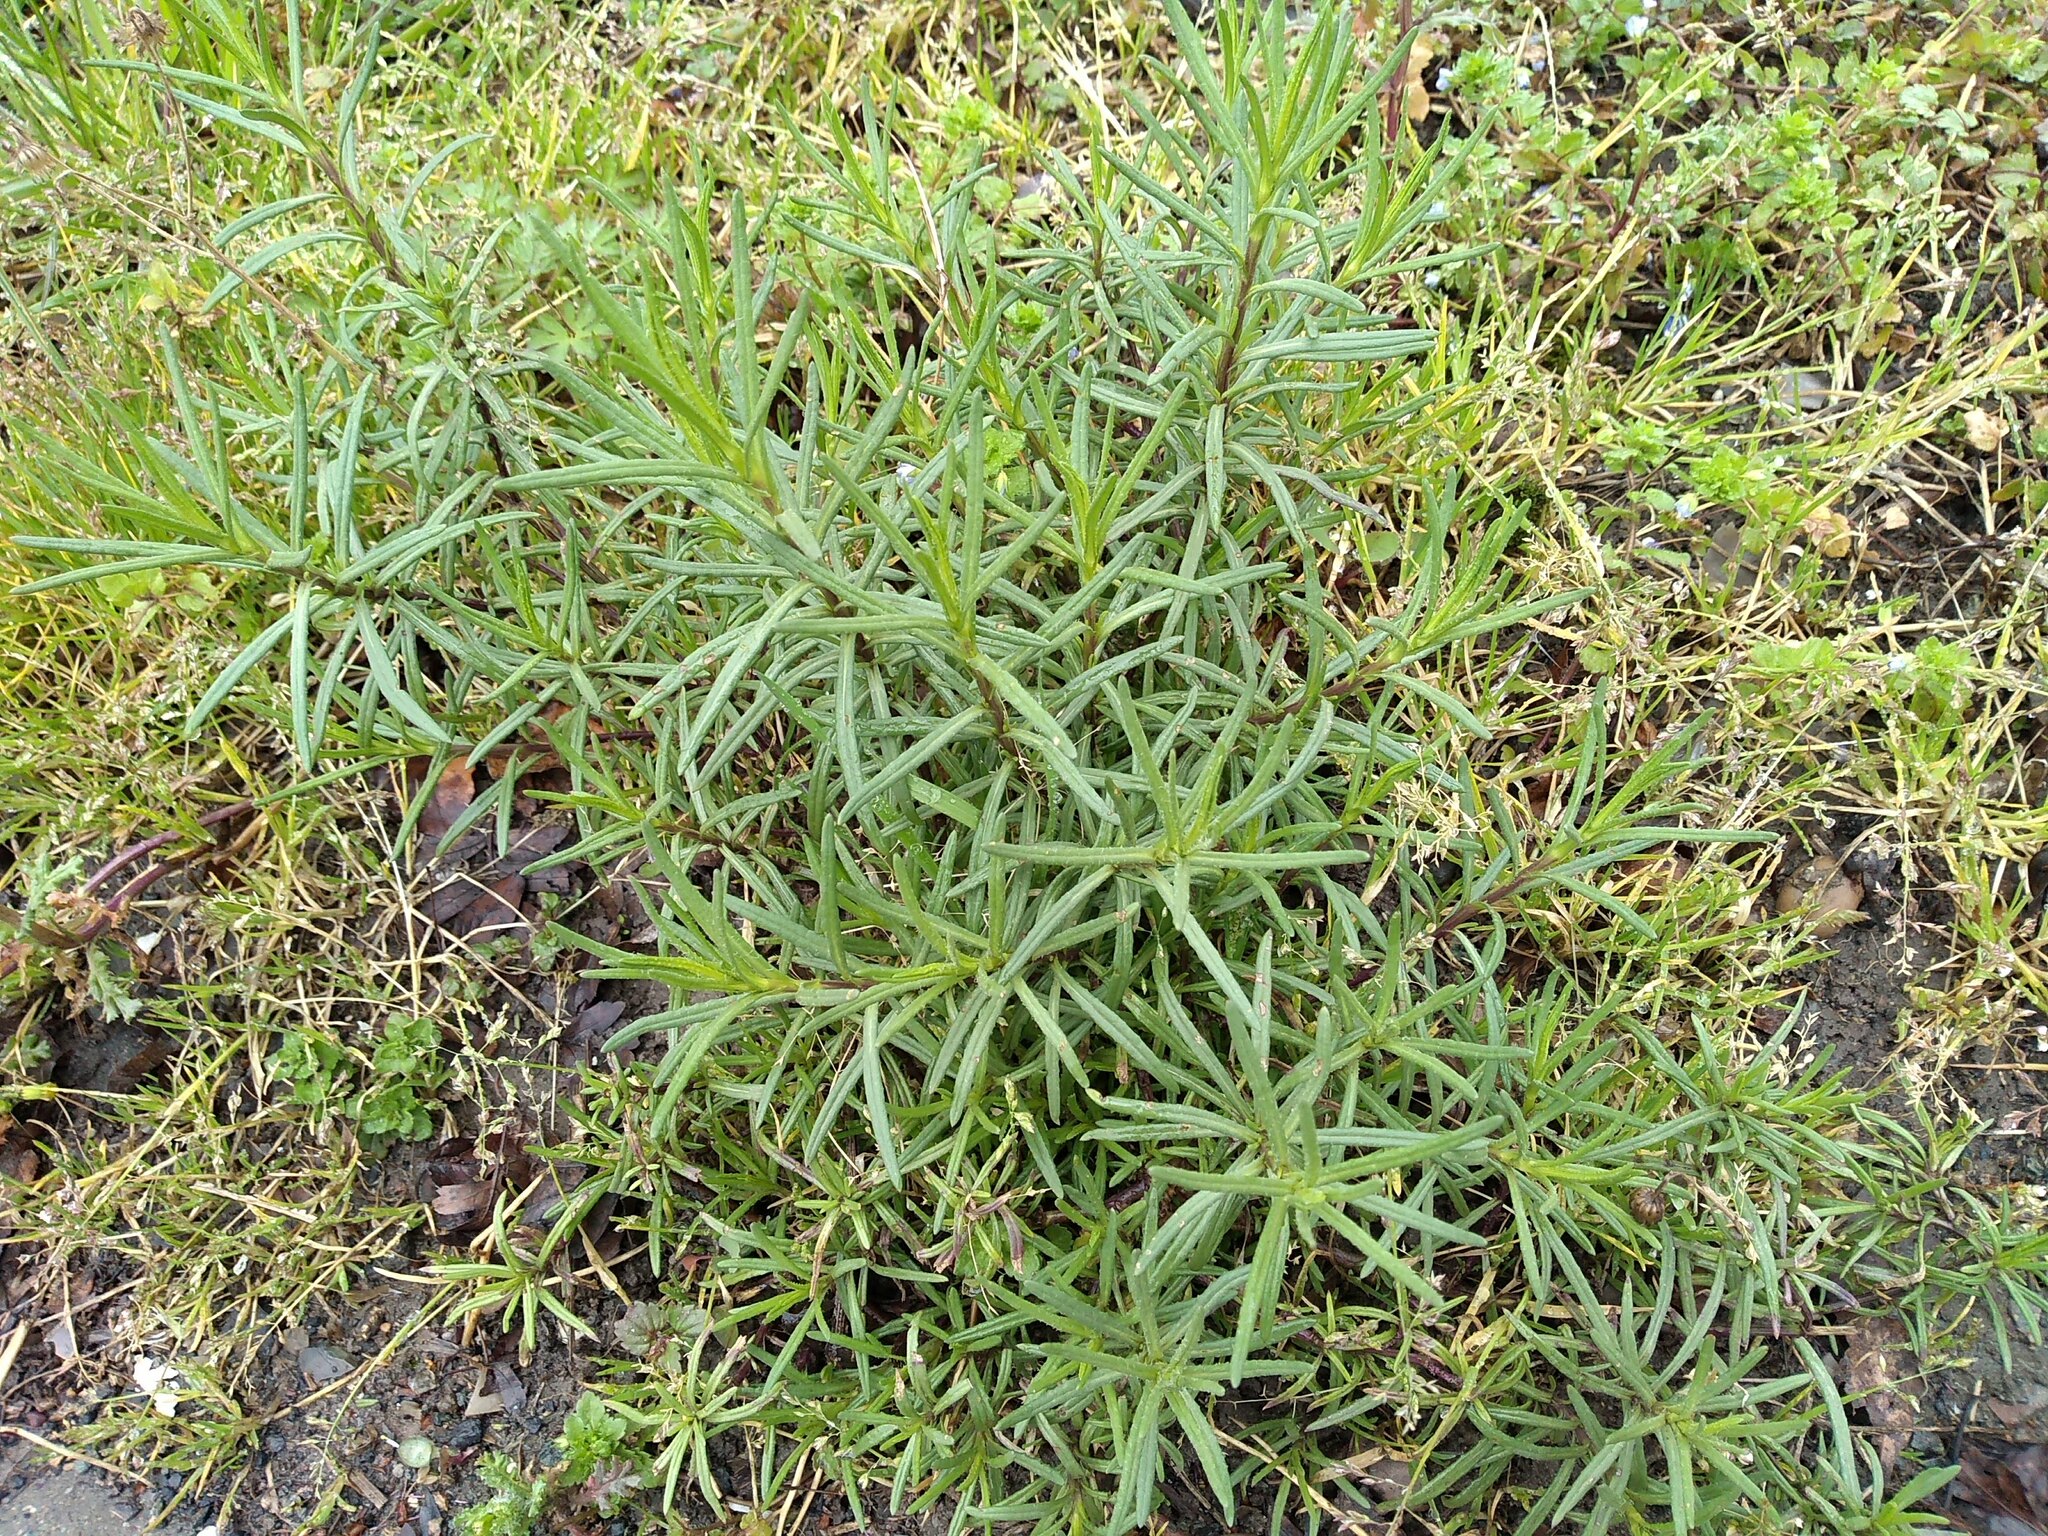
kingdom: Plantae
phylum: Tracheophyta
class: Magnoliopsida
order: Asterales
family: Asteraceae
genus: Senecio
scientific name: Senecio inaequidens
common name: Narrow-leaved ragwort
